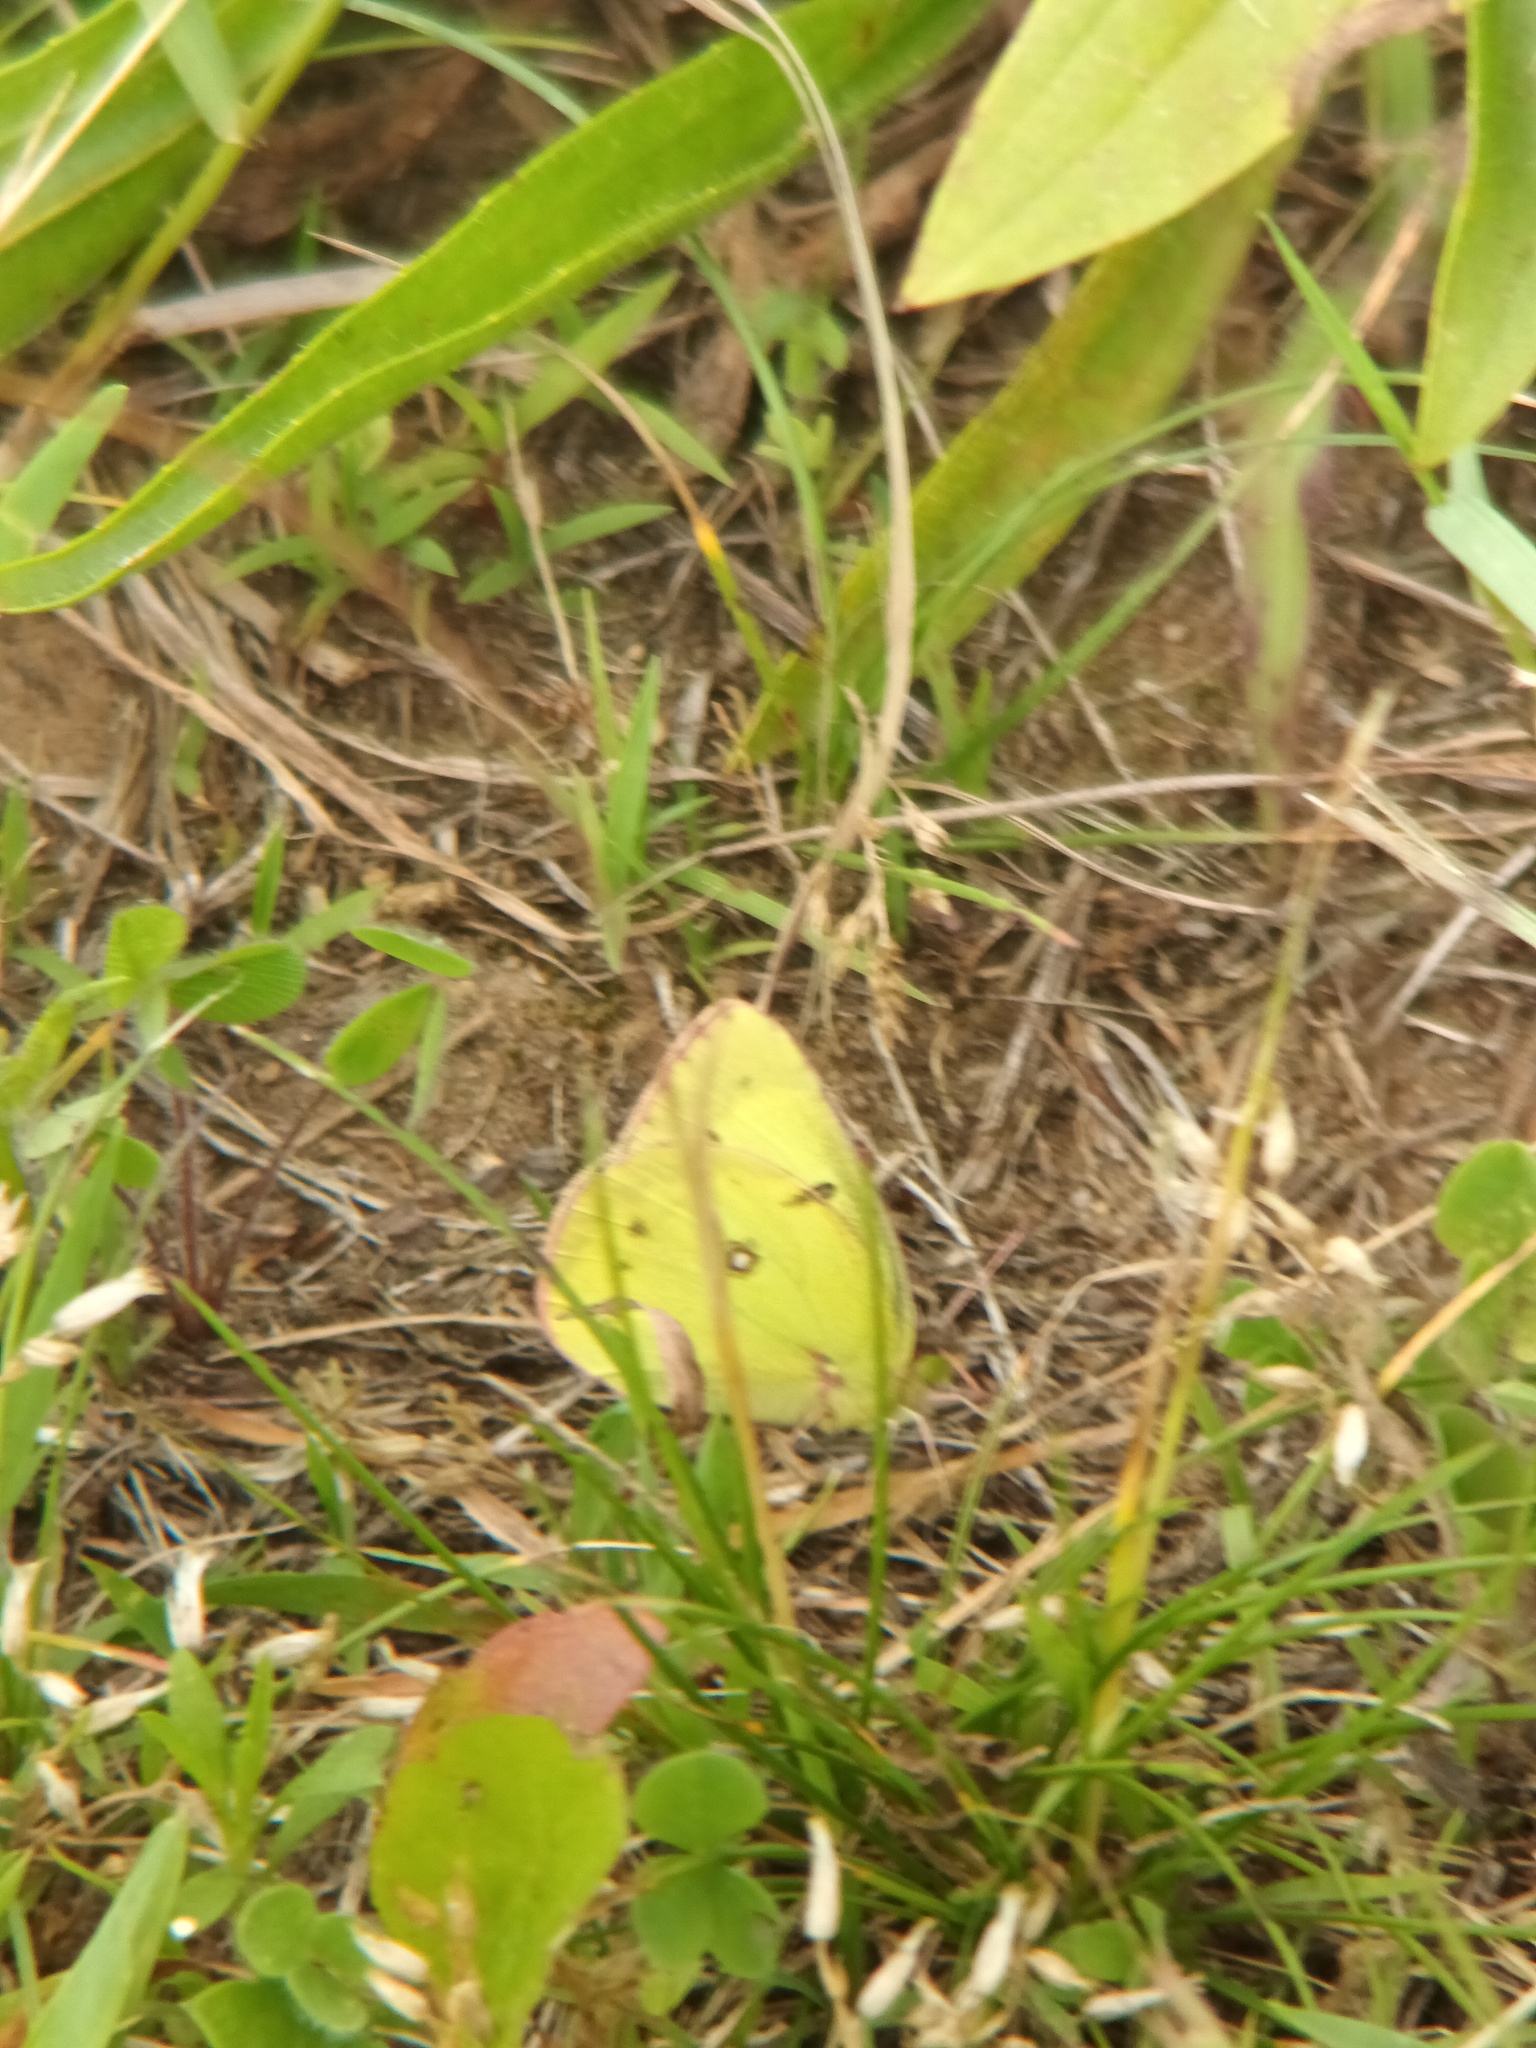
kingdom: Animalia
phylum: Arthropoda
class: Insecta
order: Lepidoptera
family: Pieridae
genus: Colias
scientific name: Colias philodice
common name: Clouded sulphur
